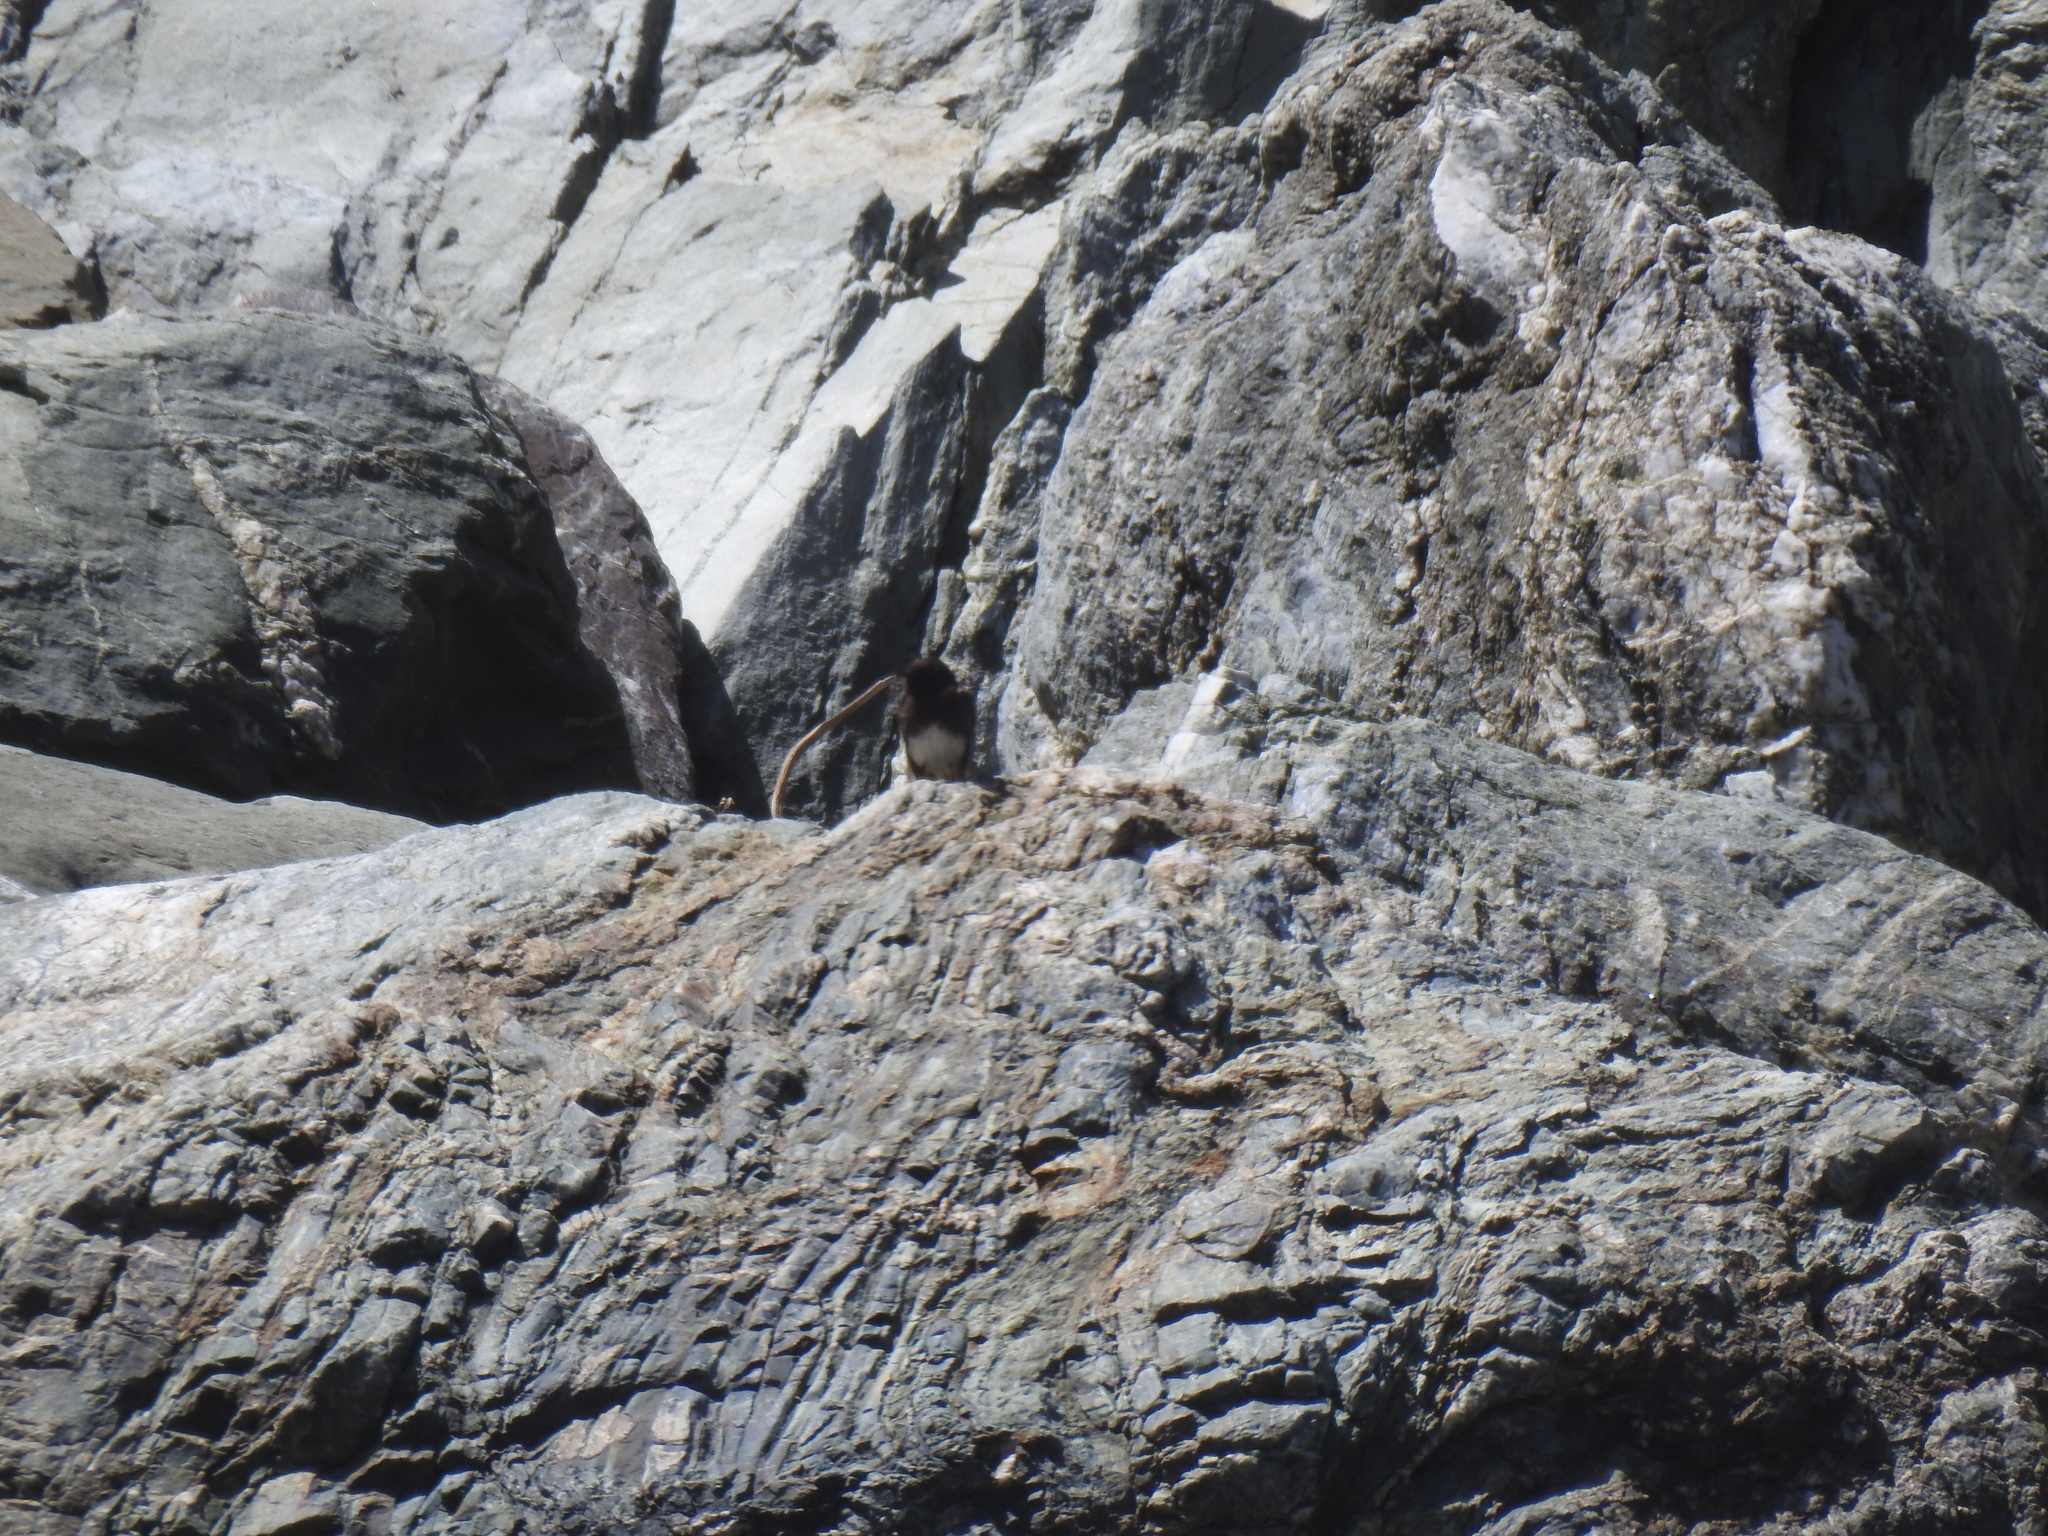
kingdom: Animalia
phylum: Chordata
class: Aves
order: Passeriformes
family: Tyrannidae
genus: Sayornis
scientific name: Sayornis nigricans
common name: Black phoebe
